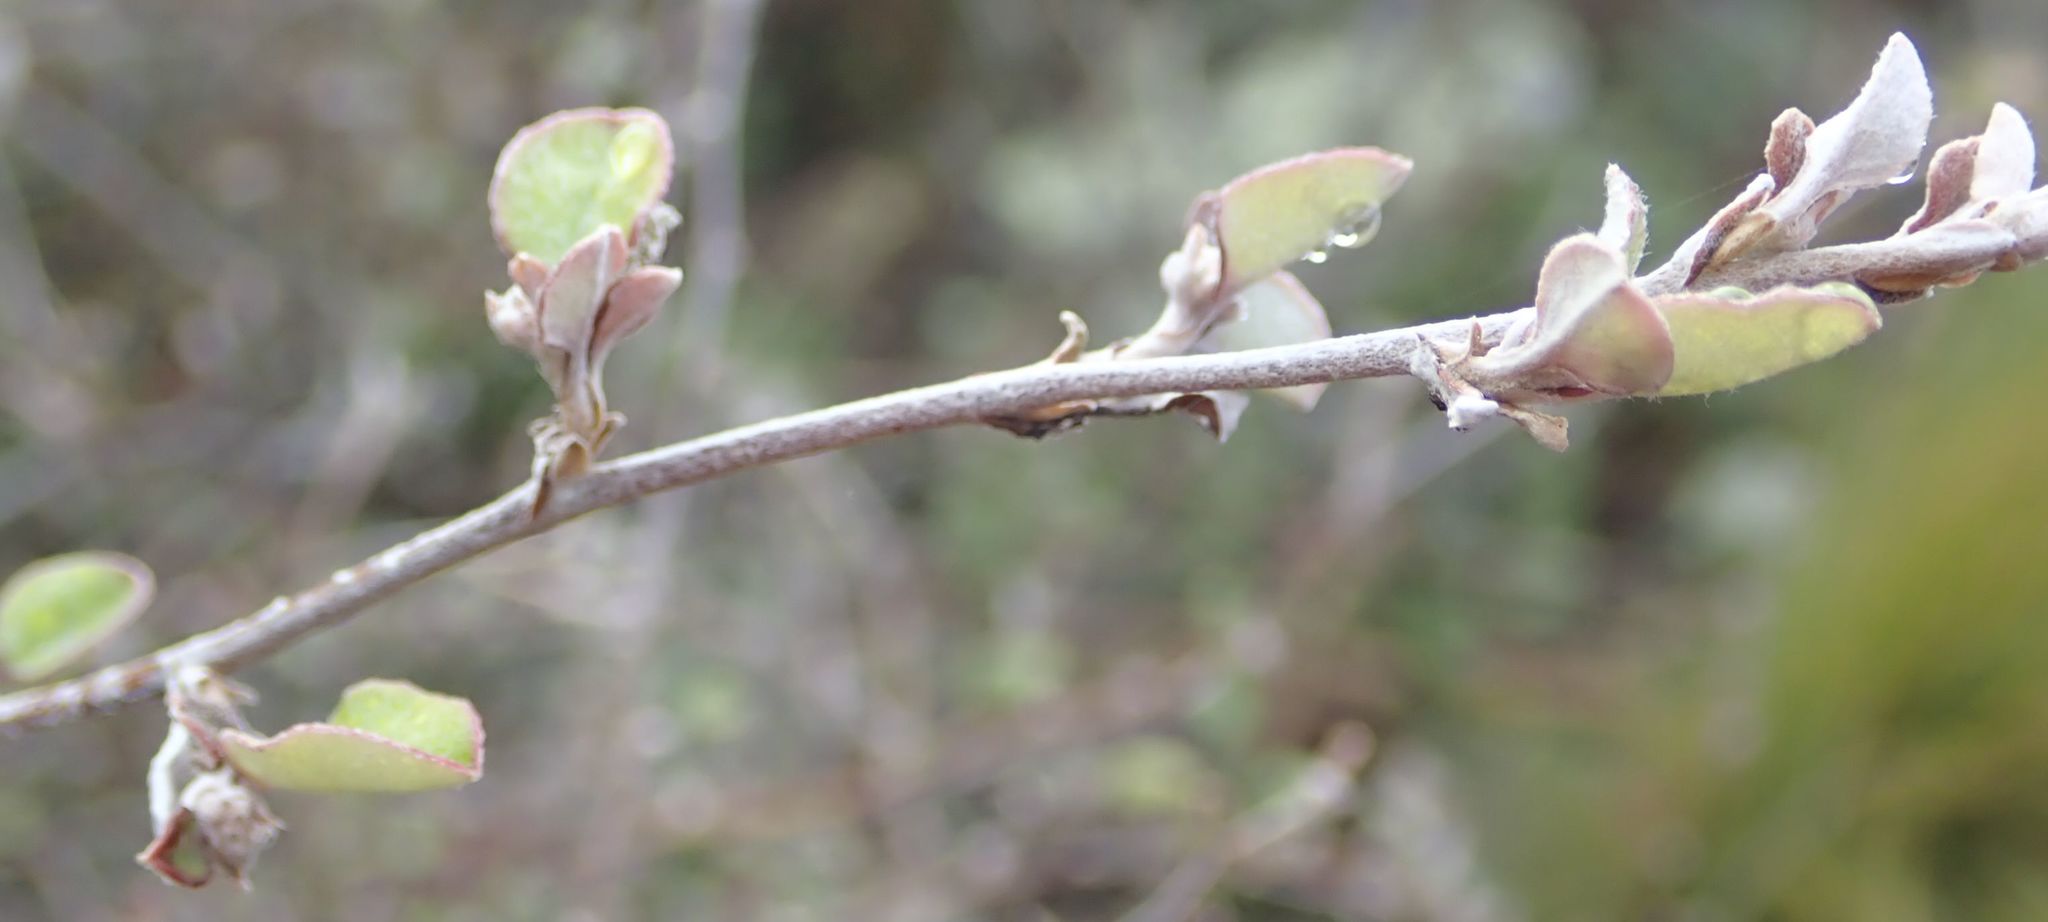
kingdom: Plantae
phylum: Tracheophyta
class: Magnoliopsida
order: Asterales
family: Asteraceae
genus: Ozothamnus
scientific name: Ozothamnus glomeratus
